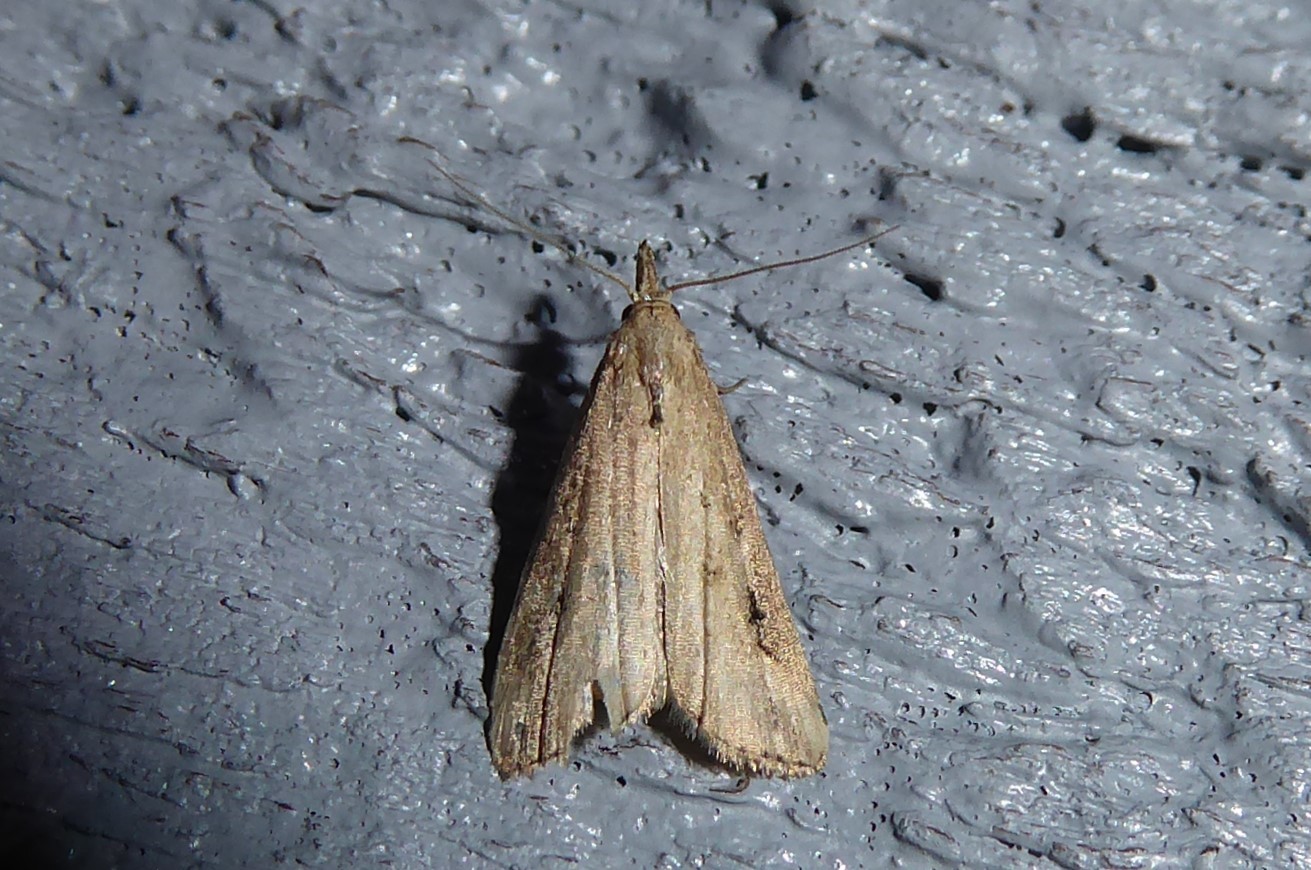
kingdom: Animalia
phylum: Arthropoda
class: Insecta
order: Lepidoptera
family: Erebidae
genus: Schrankia
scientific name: Schrankia costaestrigalis
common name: Pinion-streaked snout
